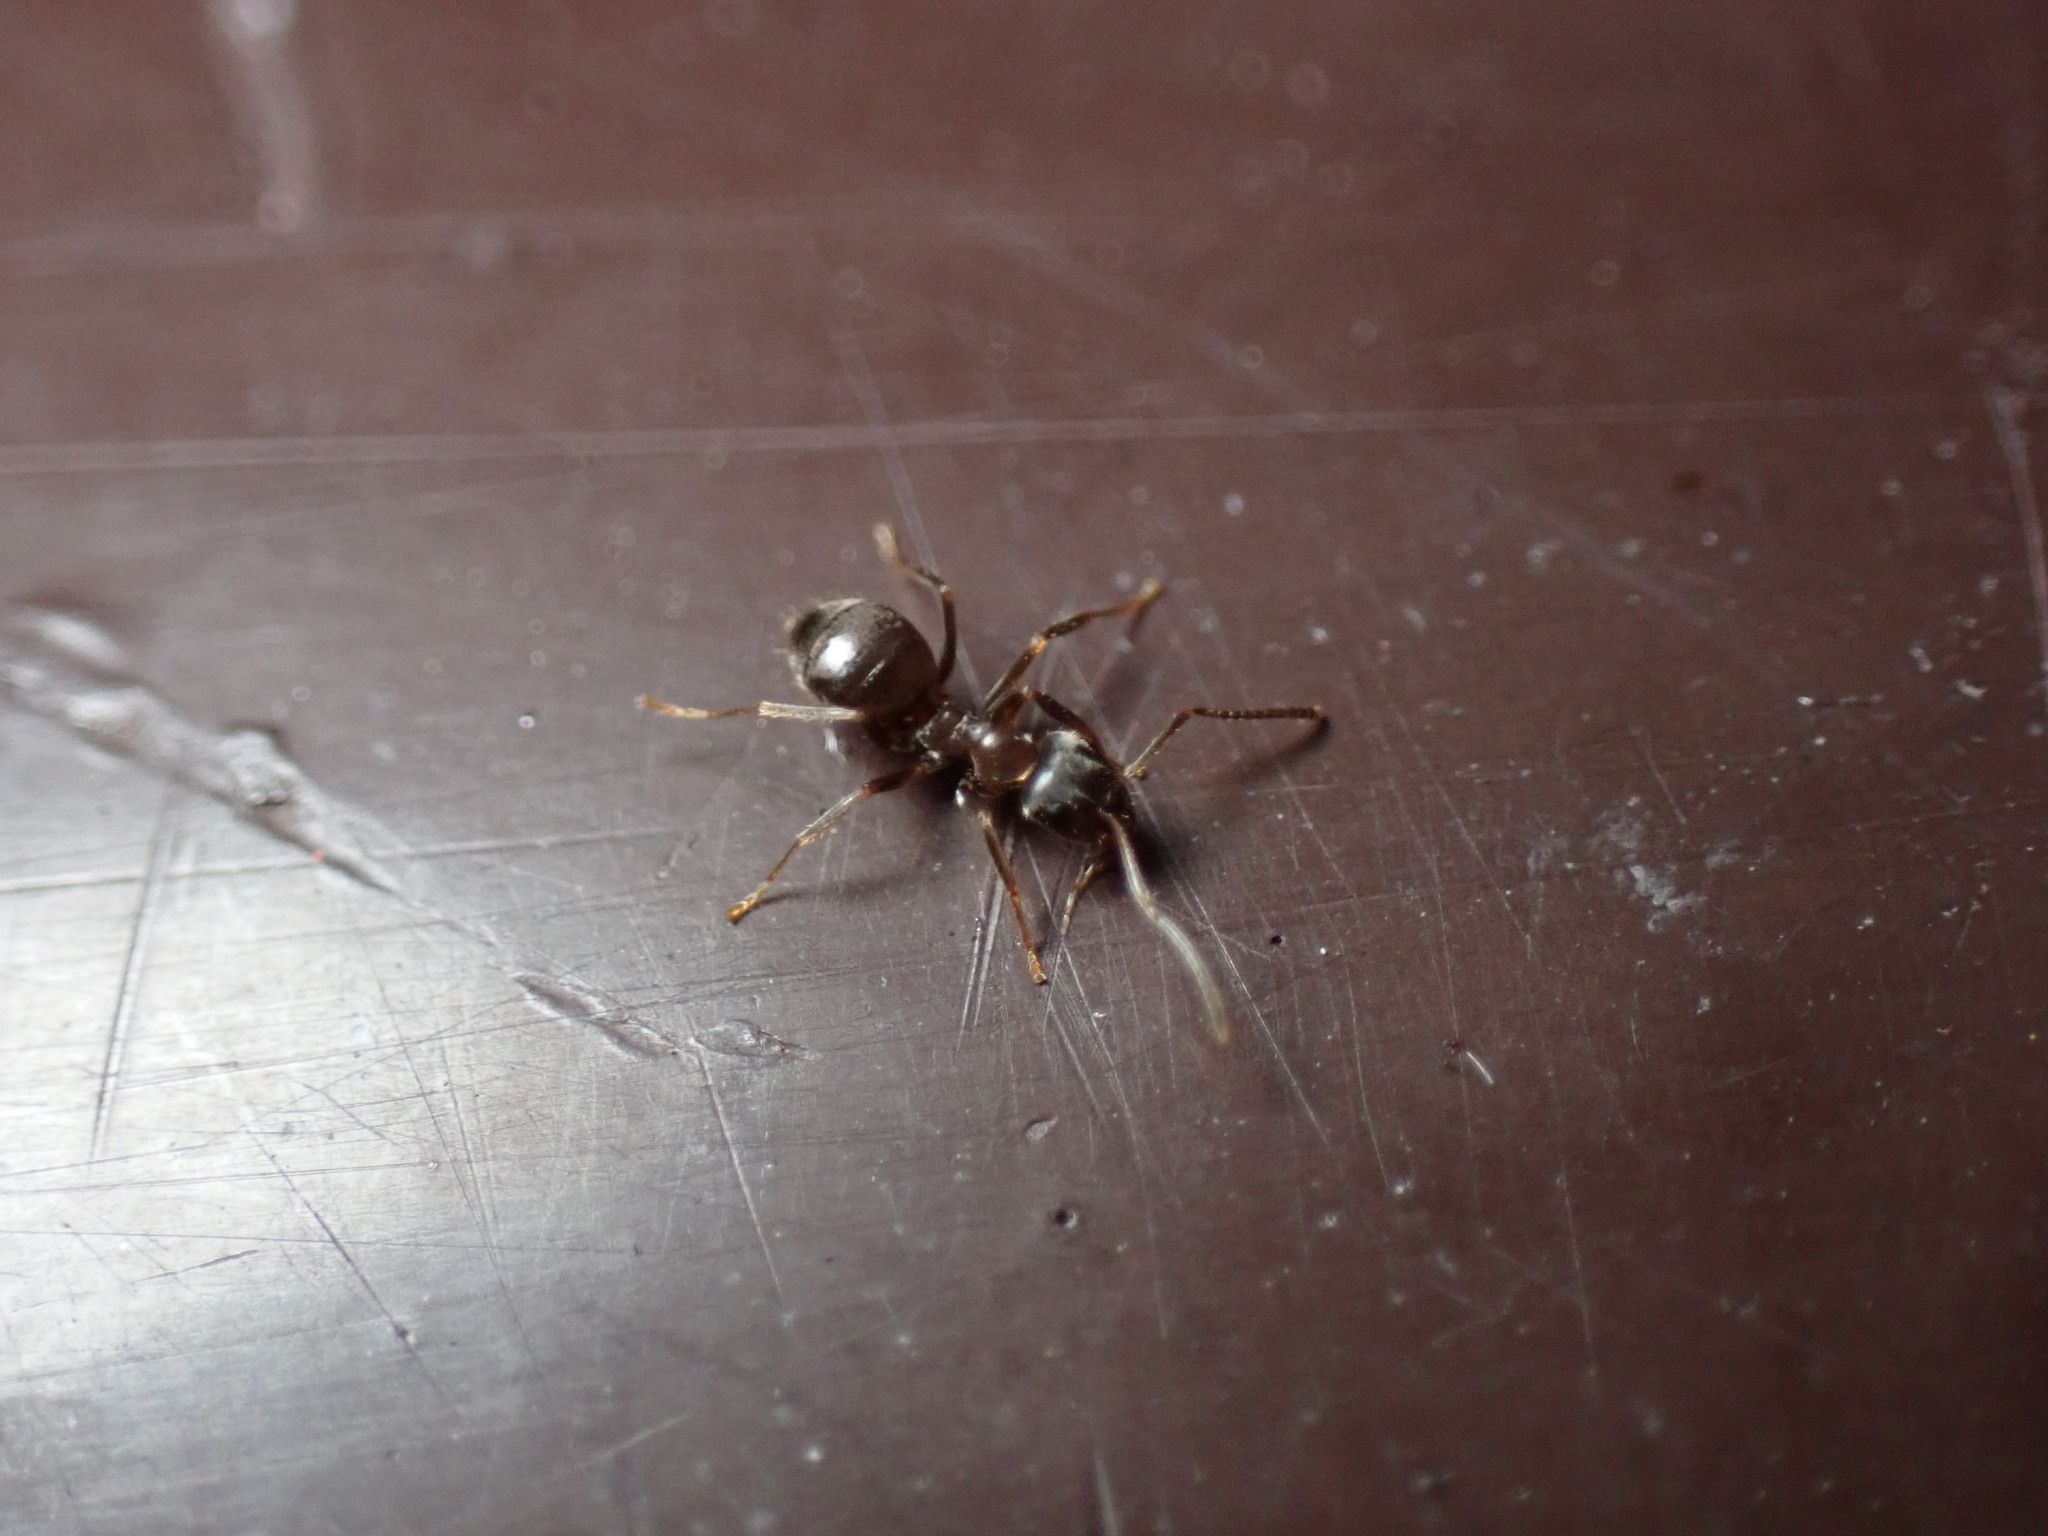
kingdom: Animalia
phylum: Arthropoda
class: Insecta
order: Hymenoptera
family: Formicidae
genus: Lasius
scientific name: Lasius japonicus
